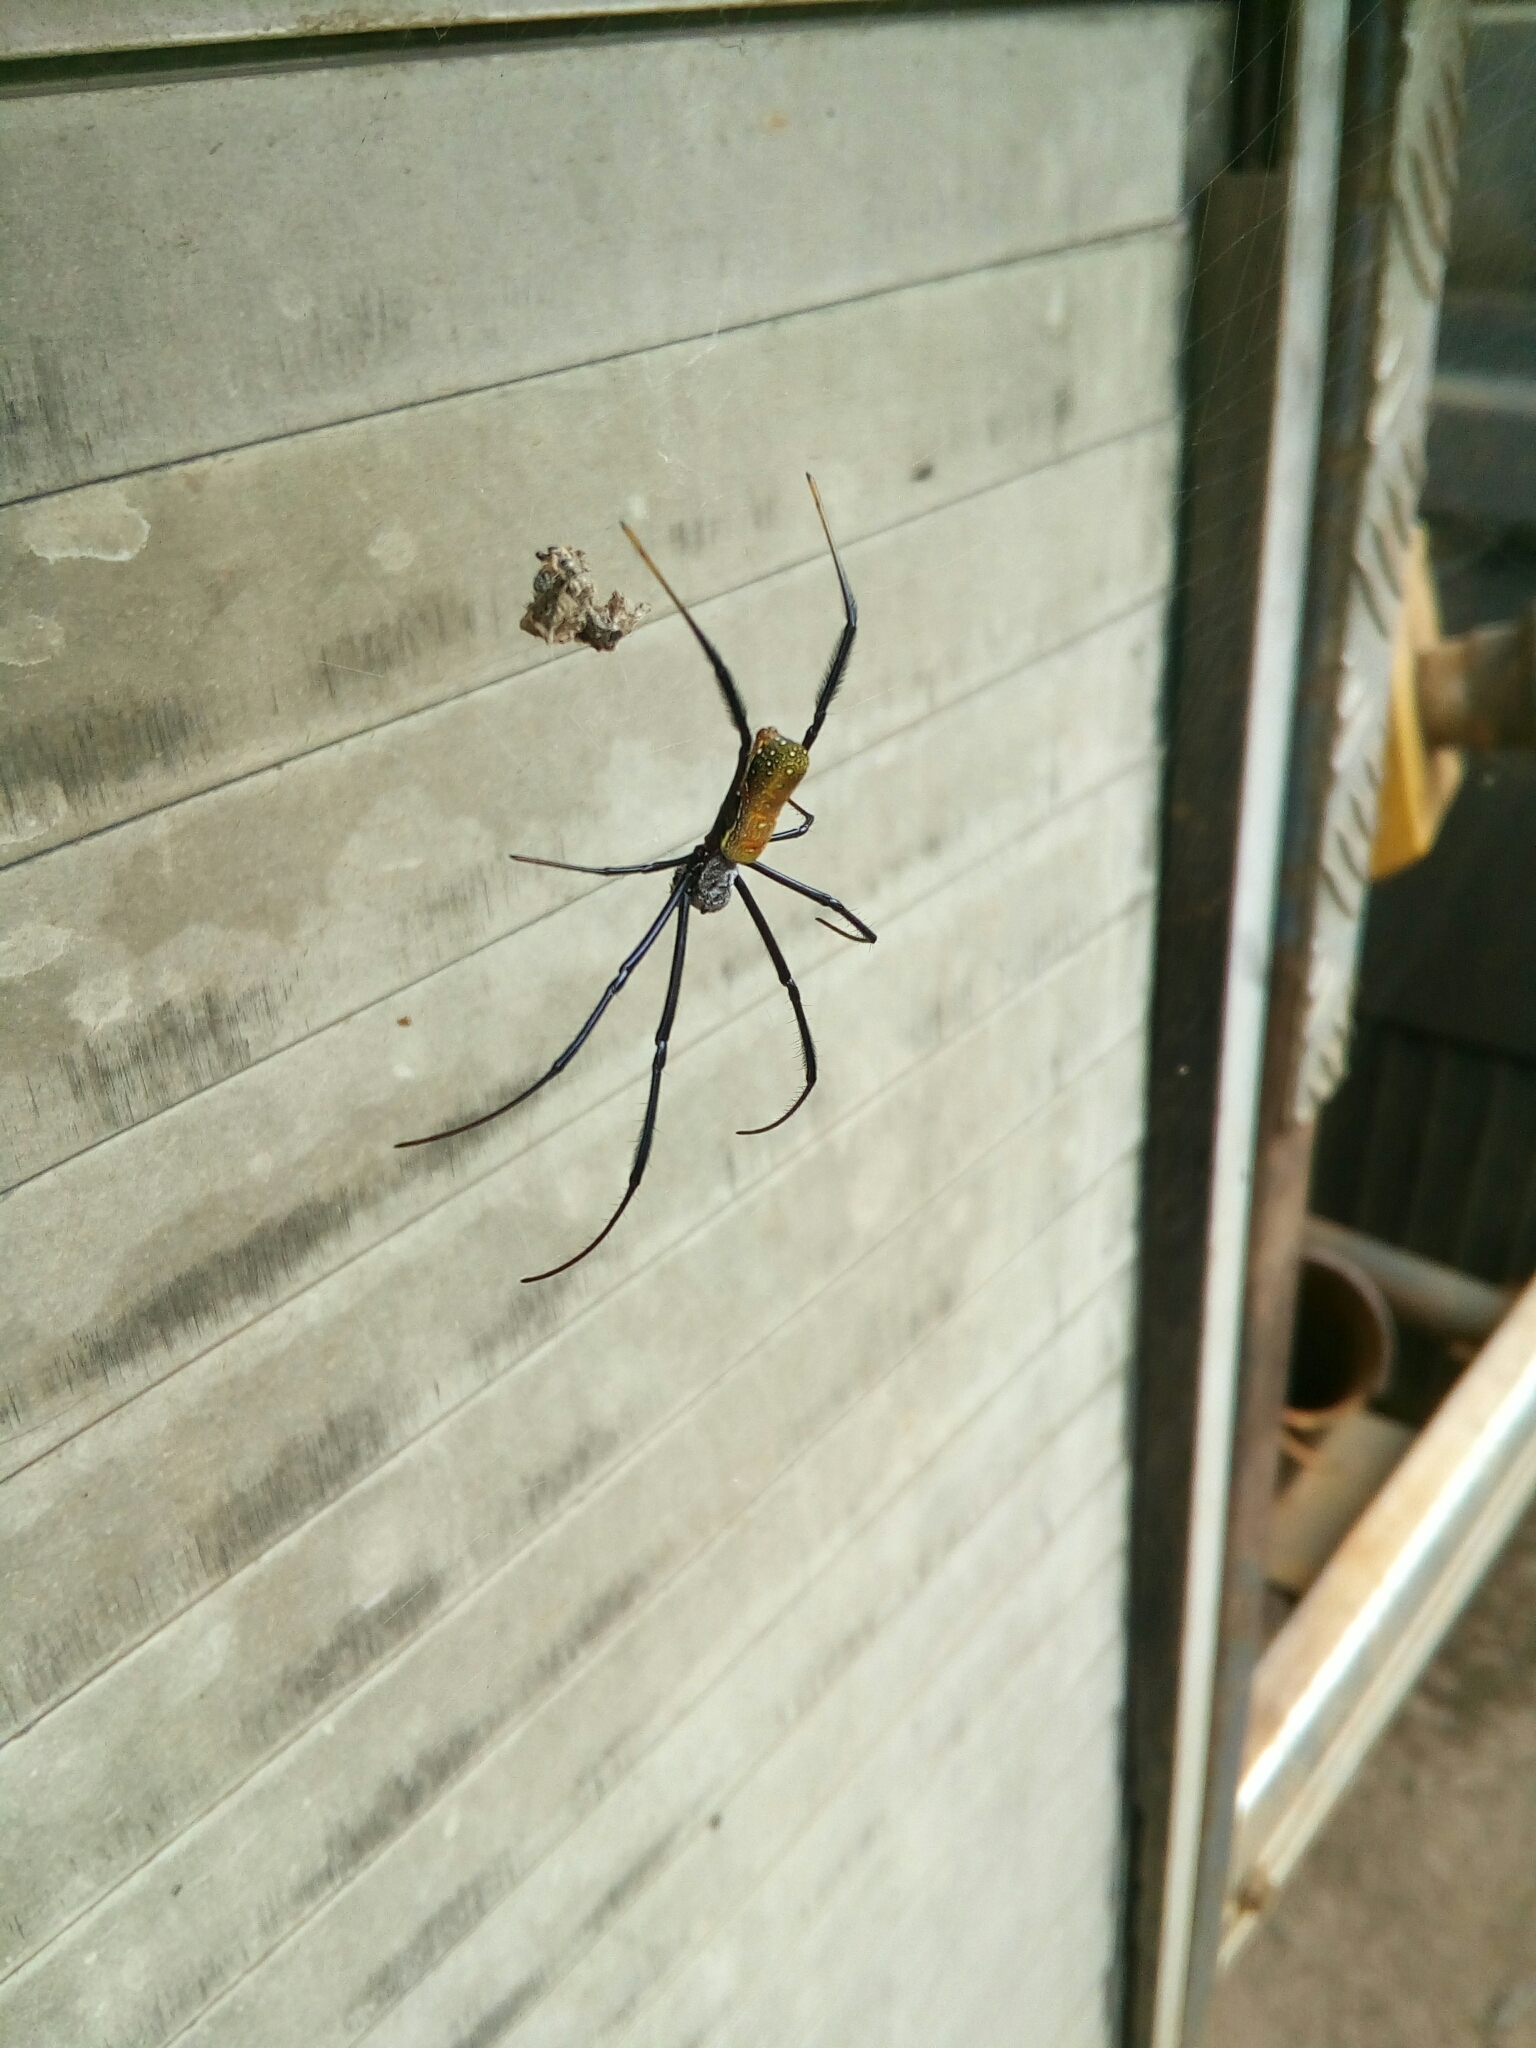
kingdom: Animalia
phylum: Arthropoda
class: Arachnida
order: Araneae
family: Araneidae
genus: Trichonephila
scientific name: Trichonephila fenestrata
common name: Hairy golden orb weaver
